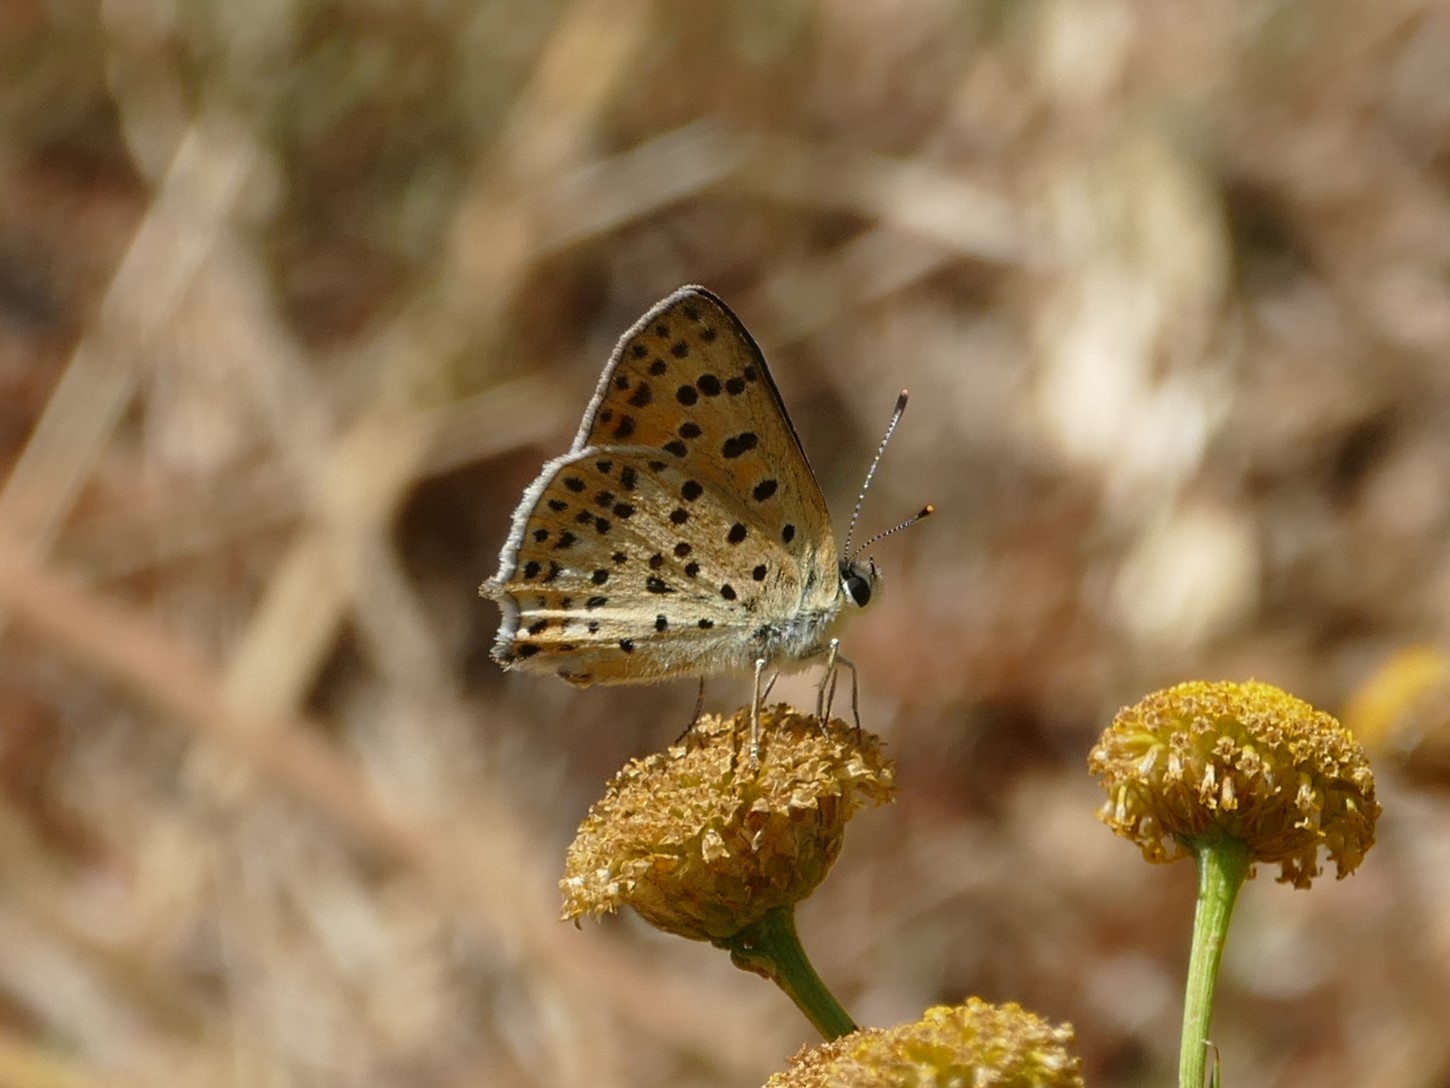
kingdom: Animalia
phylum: Arthropoda
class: Insecta
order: Lepidoptera
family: Lycaenidae
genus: Lycaena
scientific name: Lycaena bleusei
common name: Iberian sooty copper
